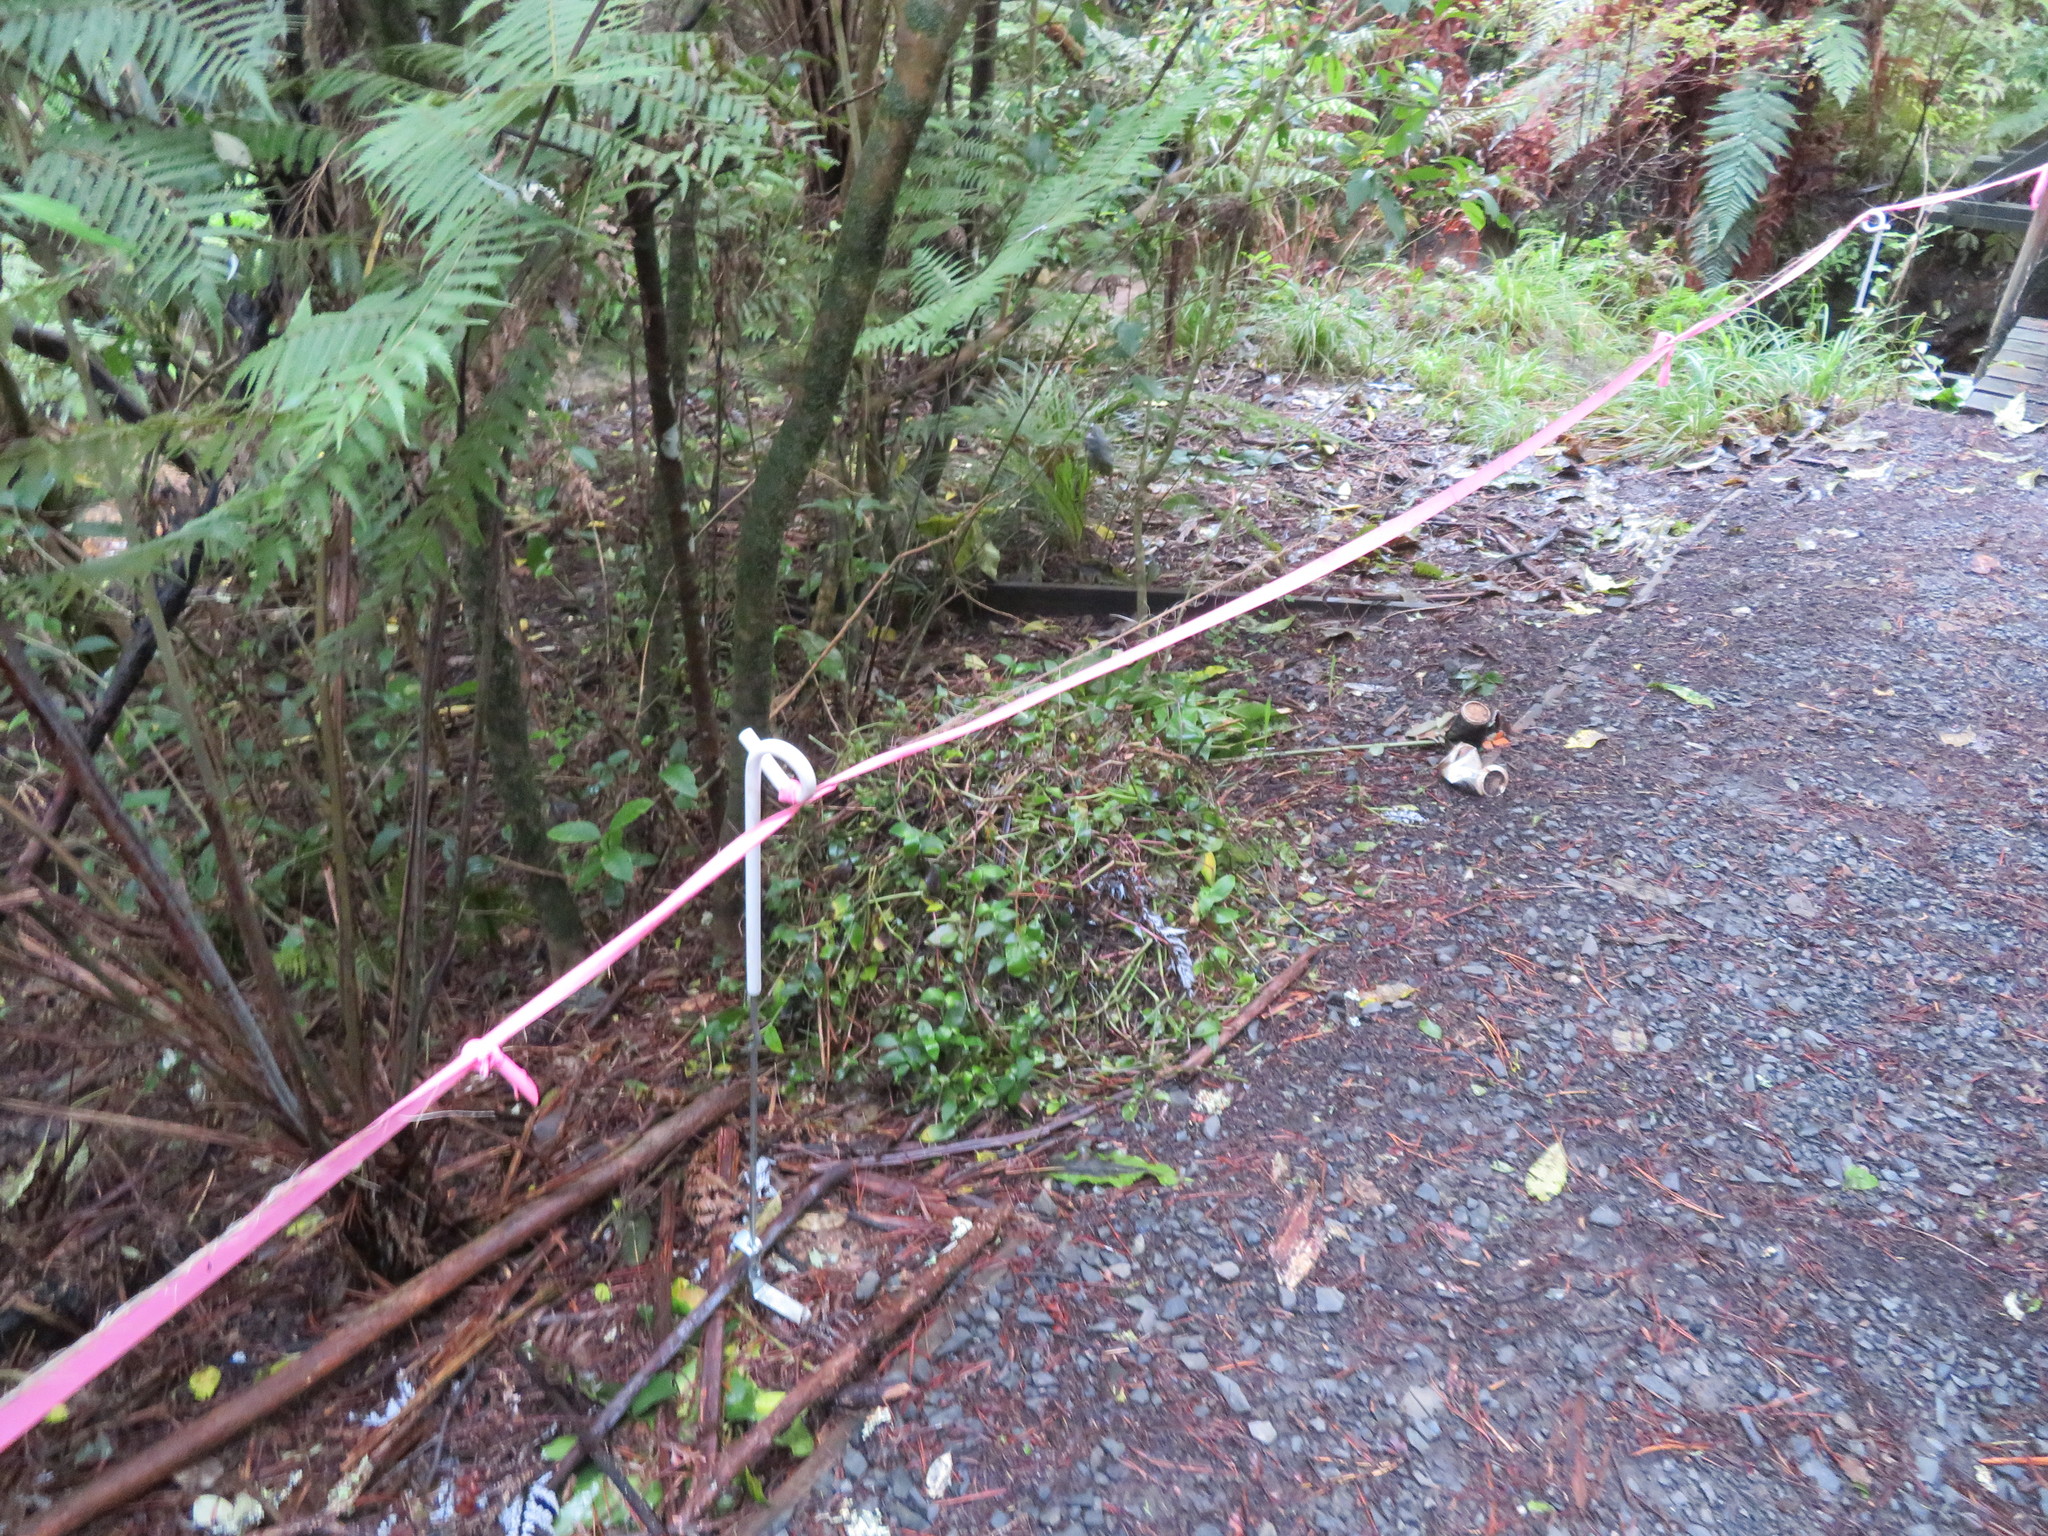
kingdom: Plantae
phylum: Tracheophyta
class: Liliopsida
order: Commelinales
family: Commelinaceae
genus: Tradescantia
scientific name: Tradescantia fluminensis
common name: Wandering-jew
